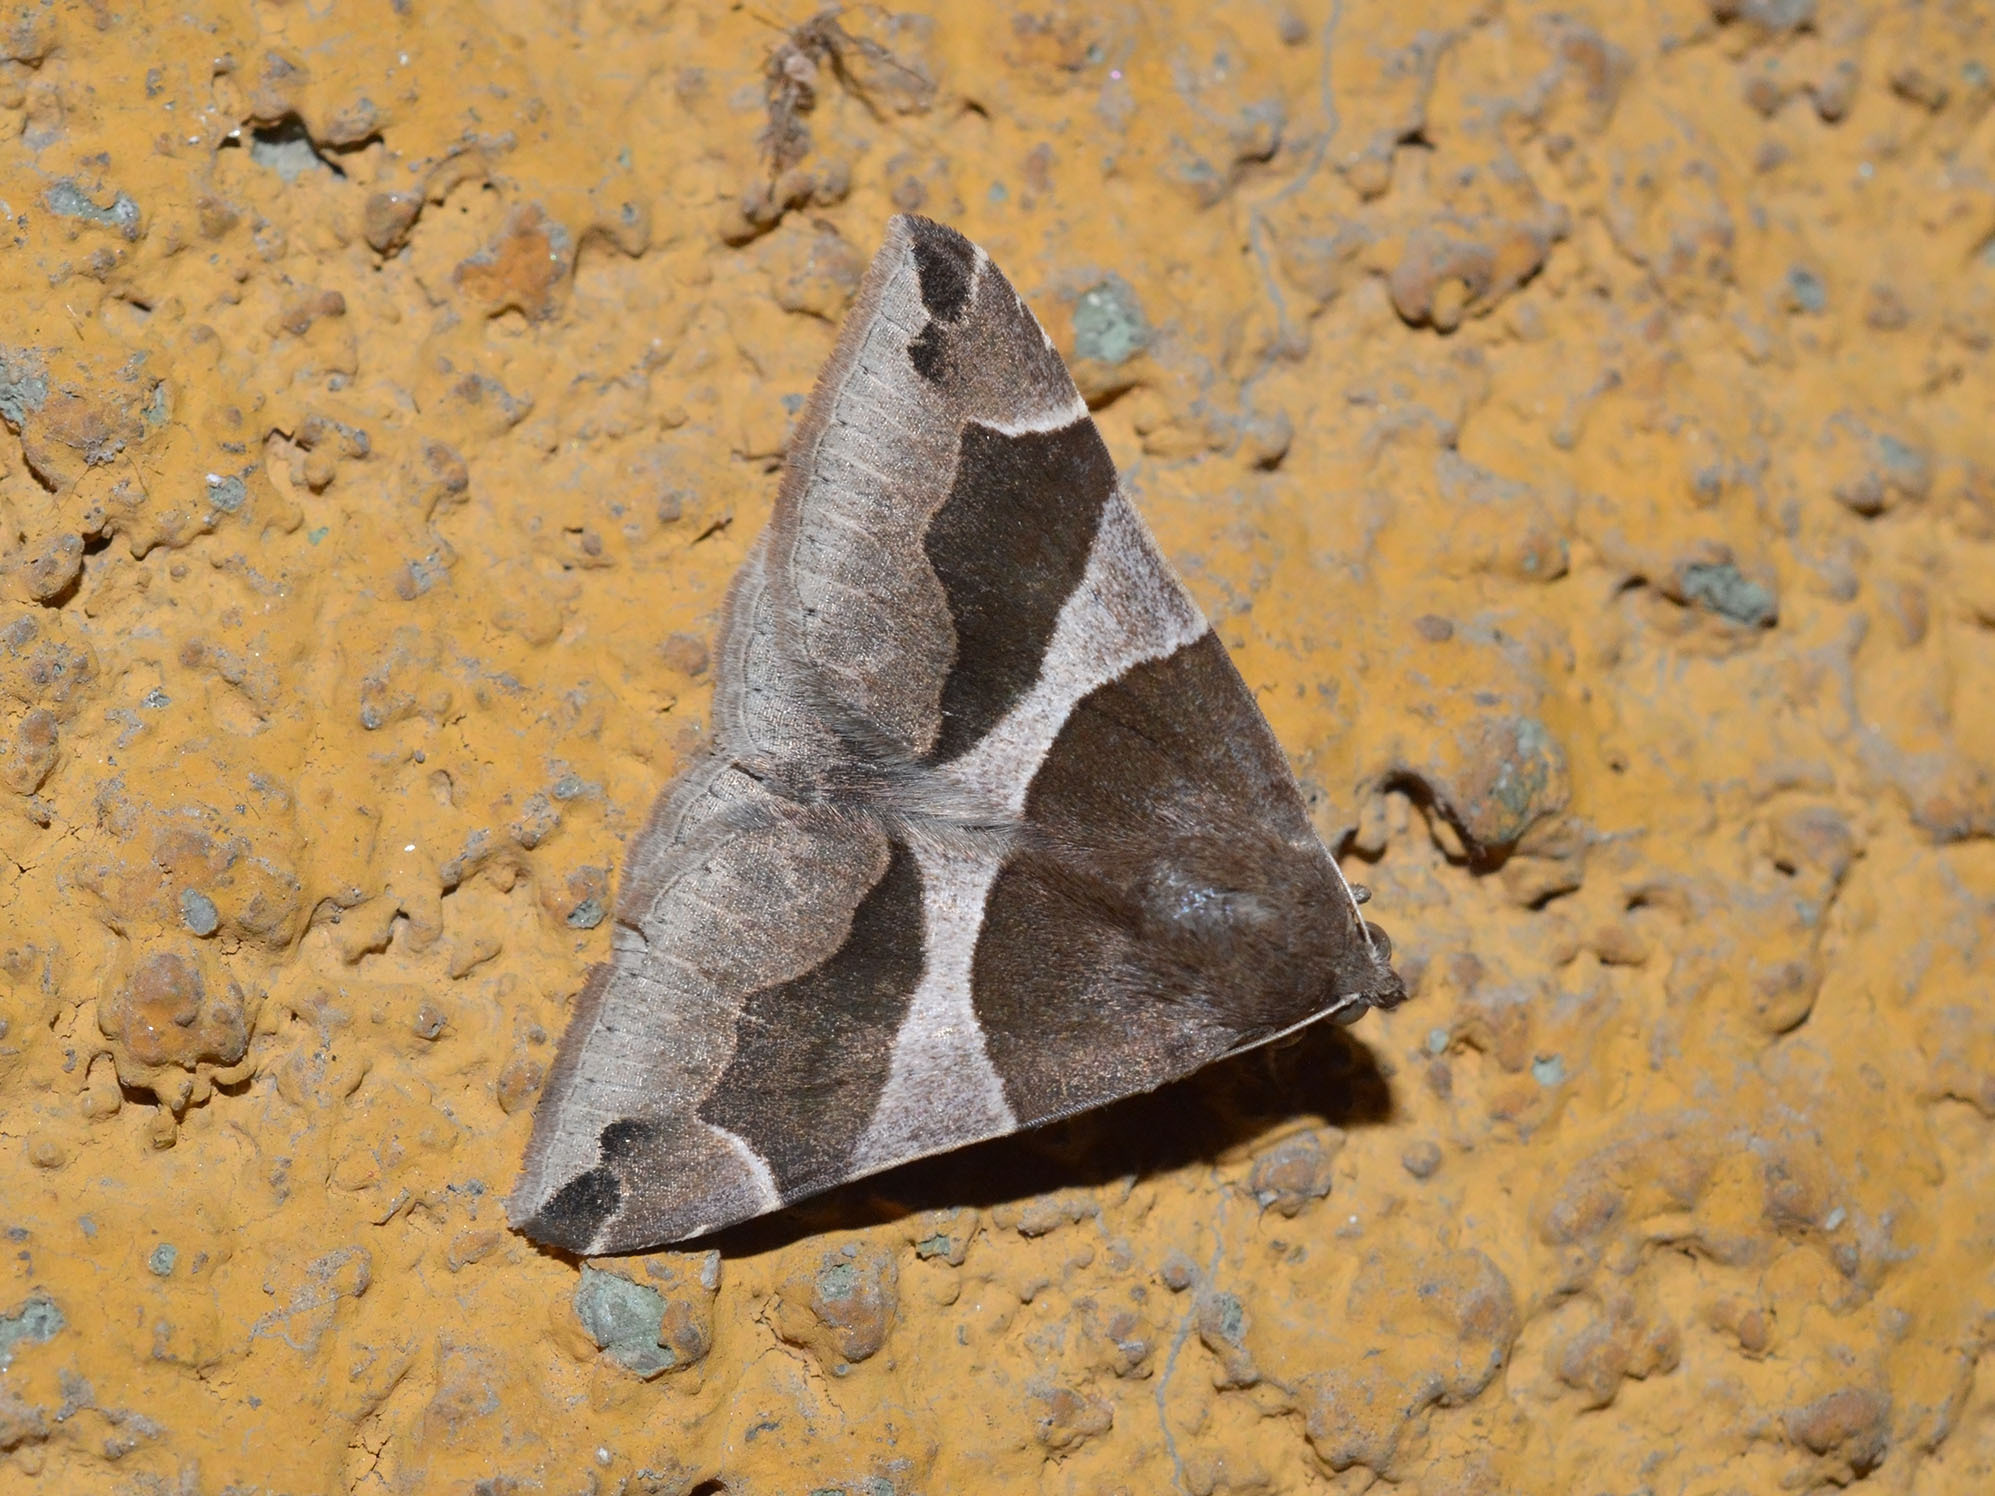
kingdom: Animalia
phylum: Arthropoda
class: Insecta
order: Lepidoptera
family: Erebidae
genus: Dysgonia
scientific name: Dysgonia algira
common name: Passenger
